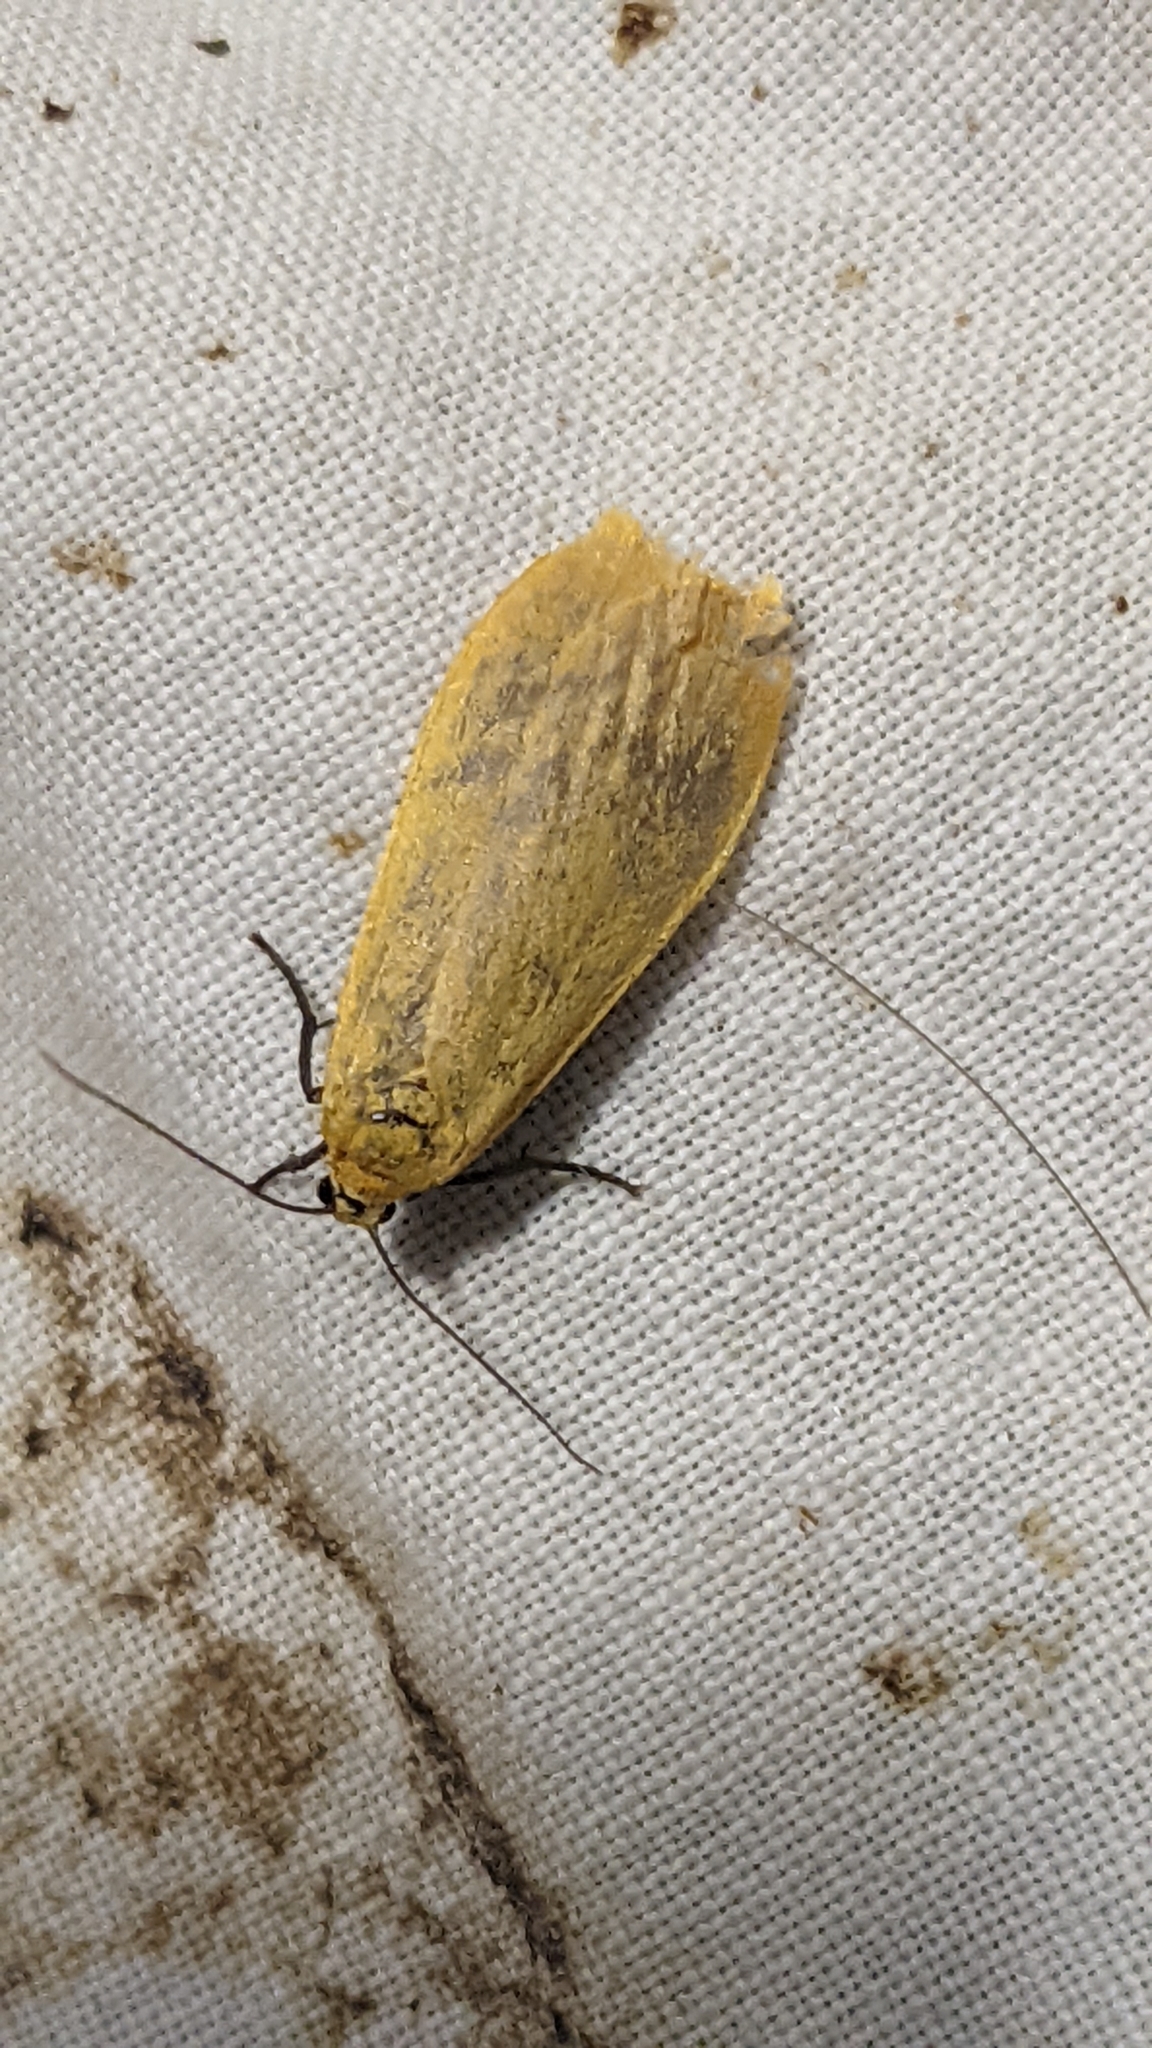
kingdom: Animalia
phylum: Arthropoda
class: Insecta
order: Lepidoptera
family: Erebidae
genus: Wittia
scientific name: Wittia sororcula
